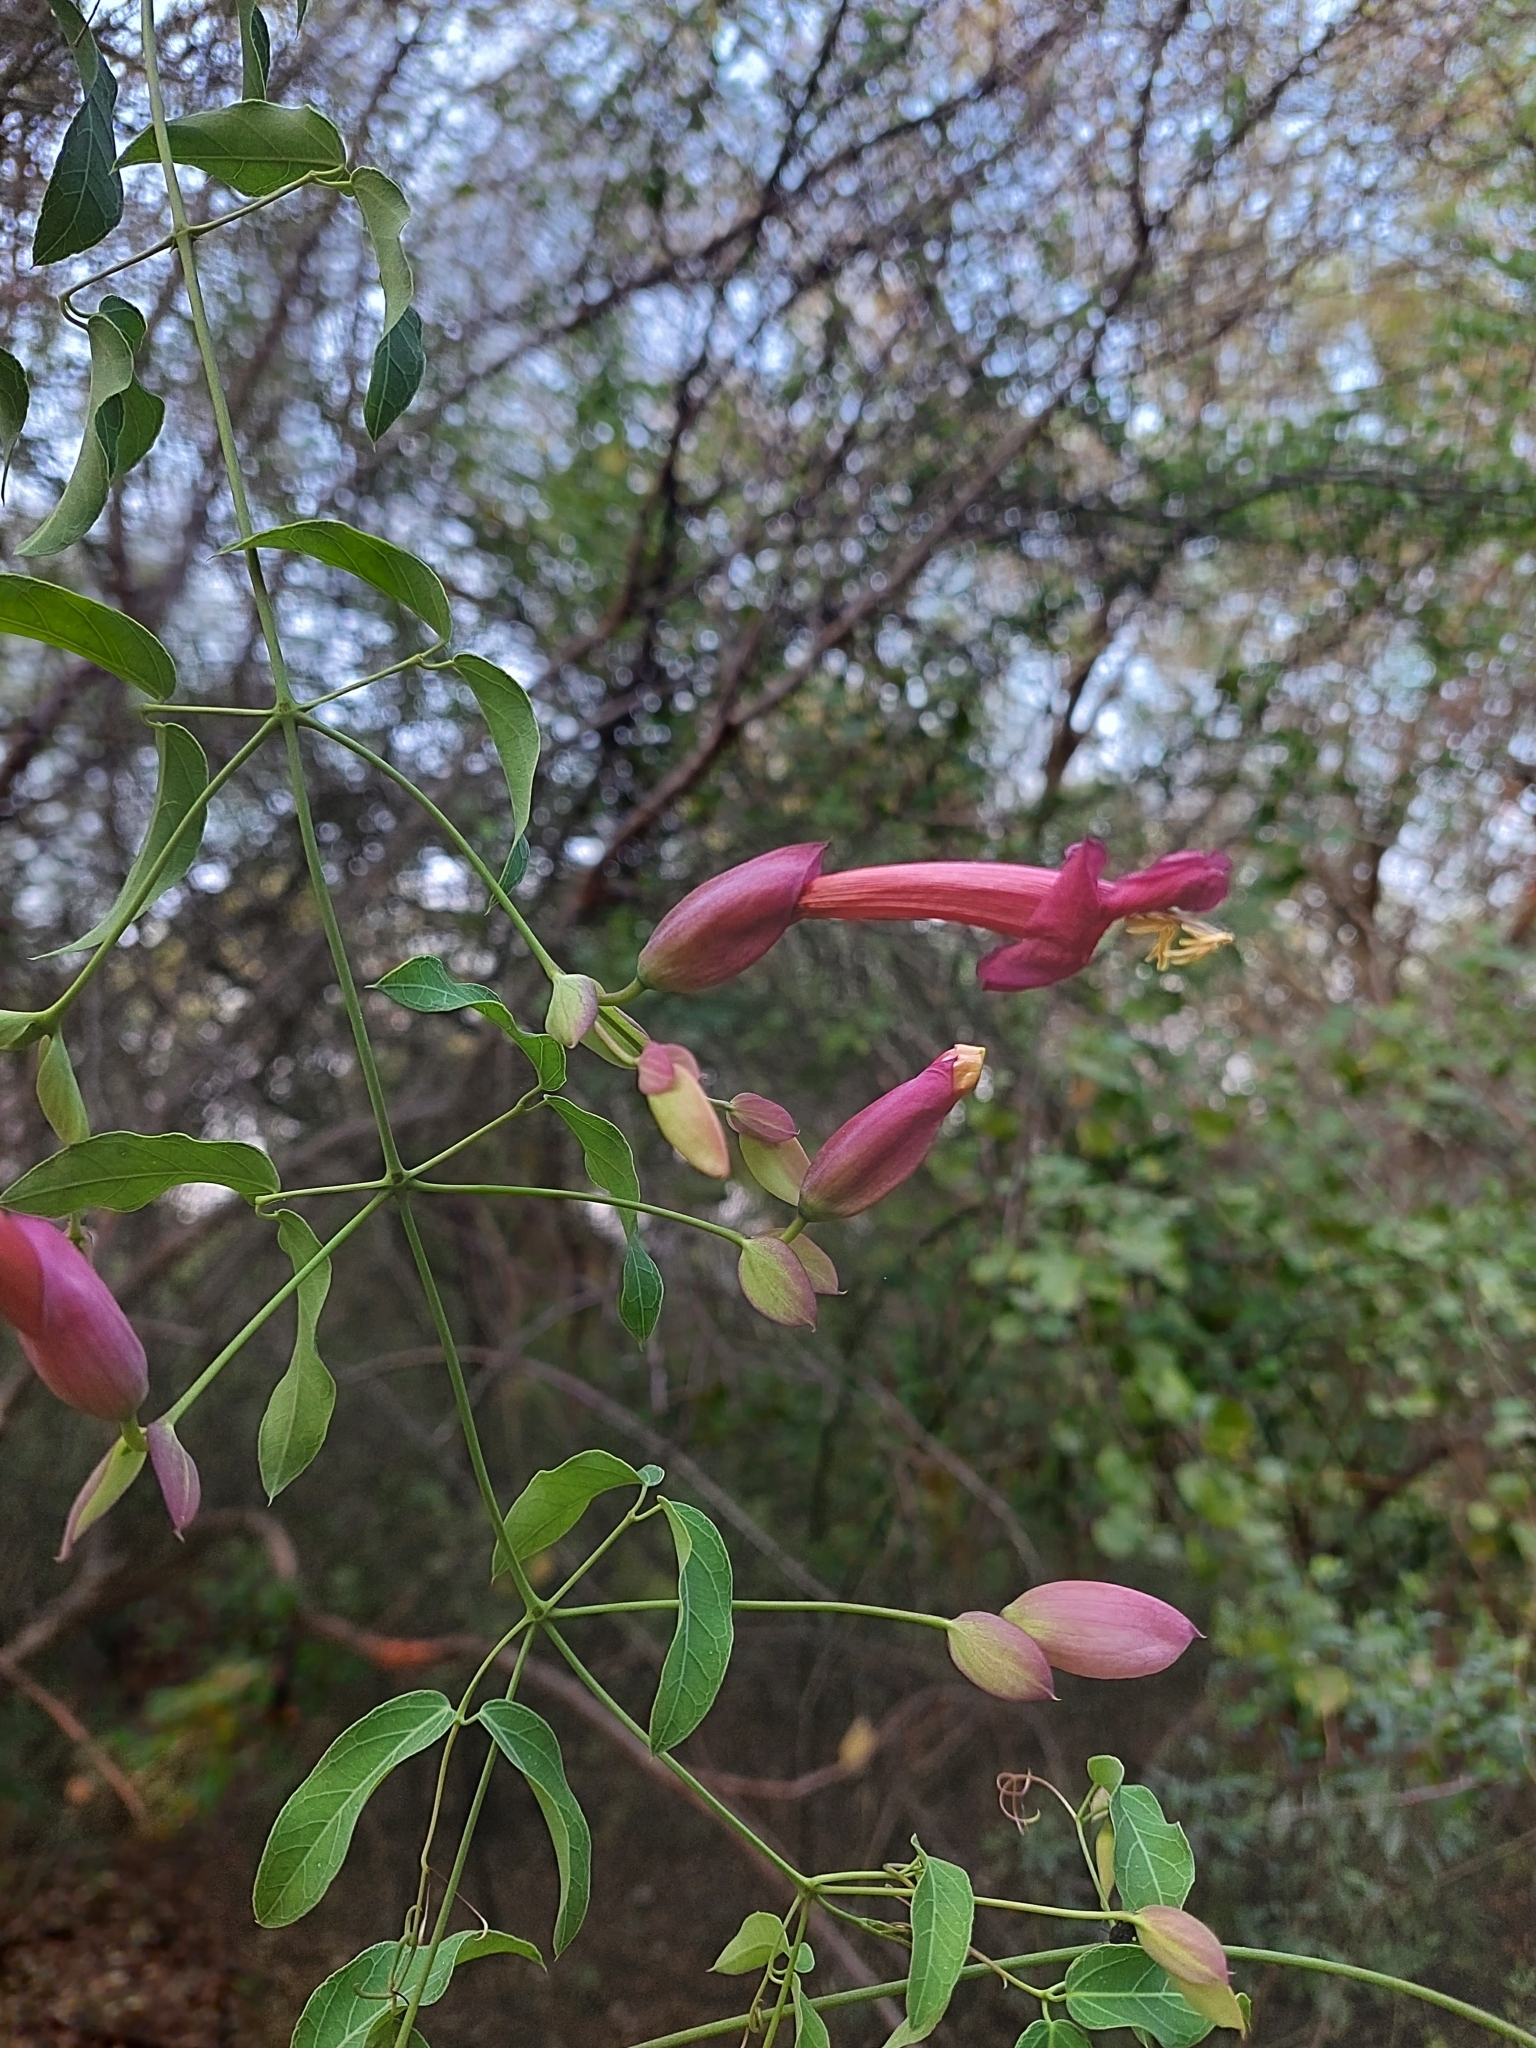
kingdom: Plantae
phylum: Tracheophyta
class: Magnoliopsida
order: Lamiales
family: Bignoniaceae
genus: Dolichandra
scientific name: Dolichandra cynanchoides
